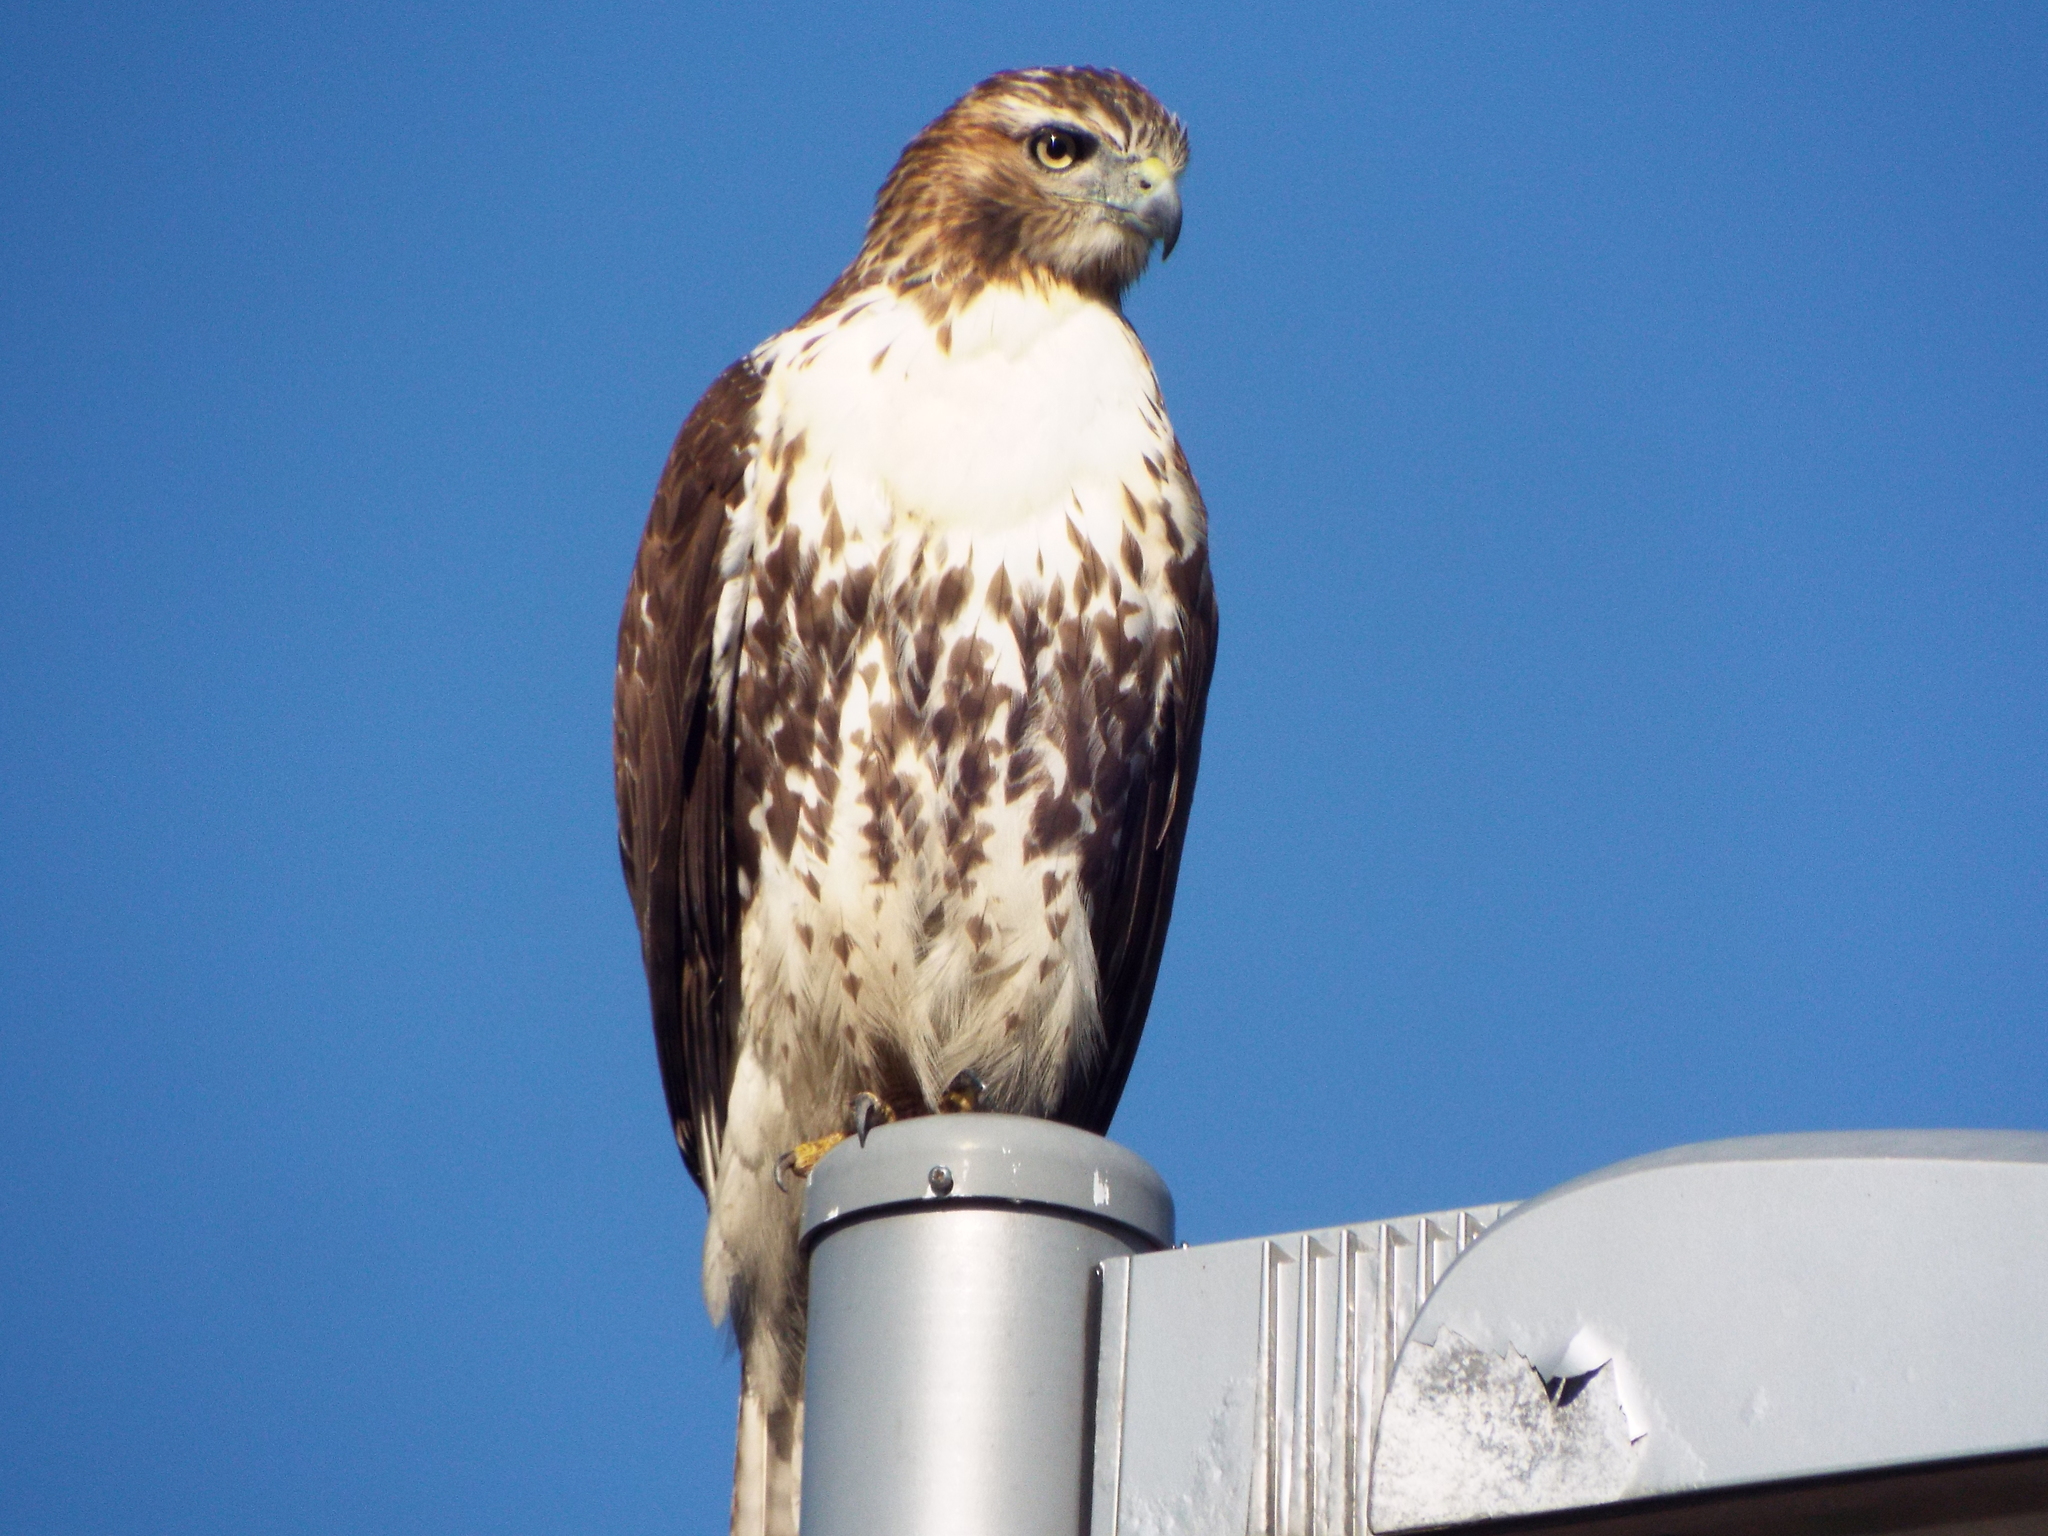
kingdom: Animalia
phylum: Chordata
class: Aves
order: Accipitriformes
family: Accipitridae
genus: Buteo
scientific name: Buteo jamaicensis
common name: Red-tailed hawk
